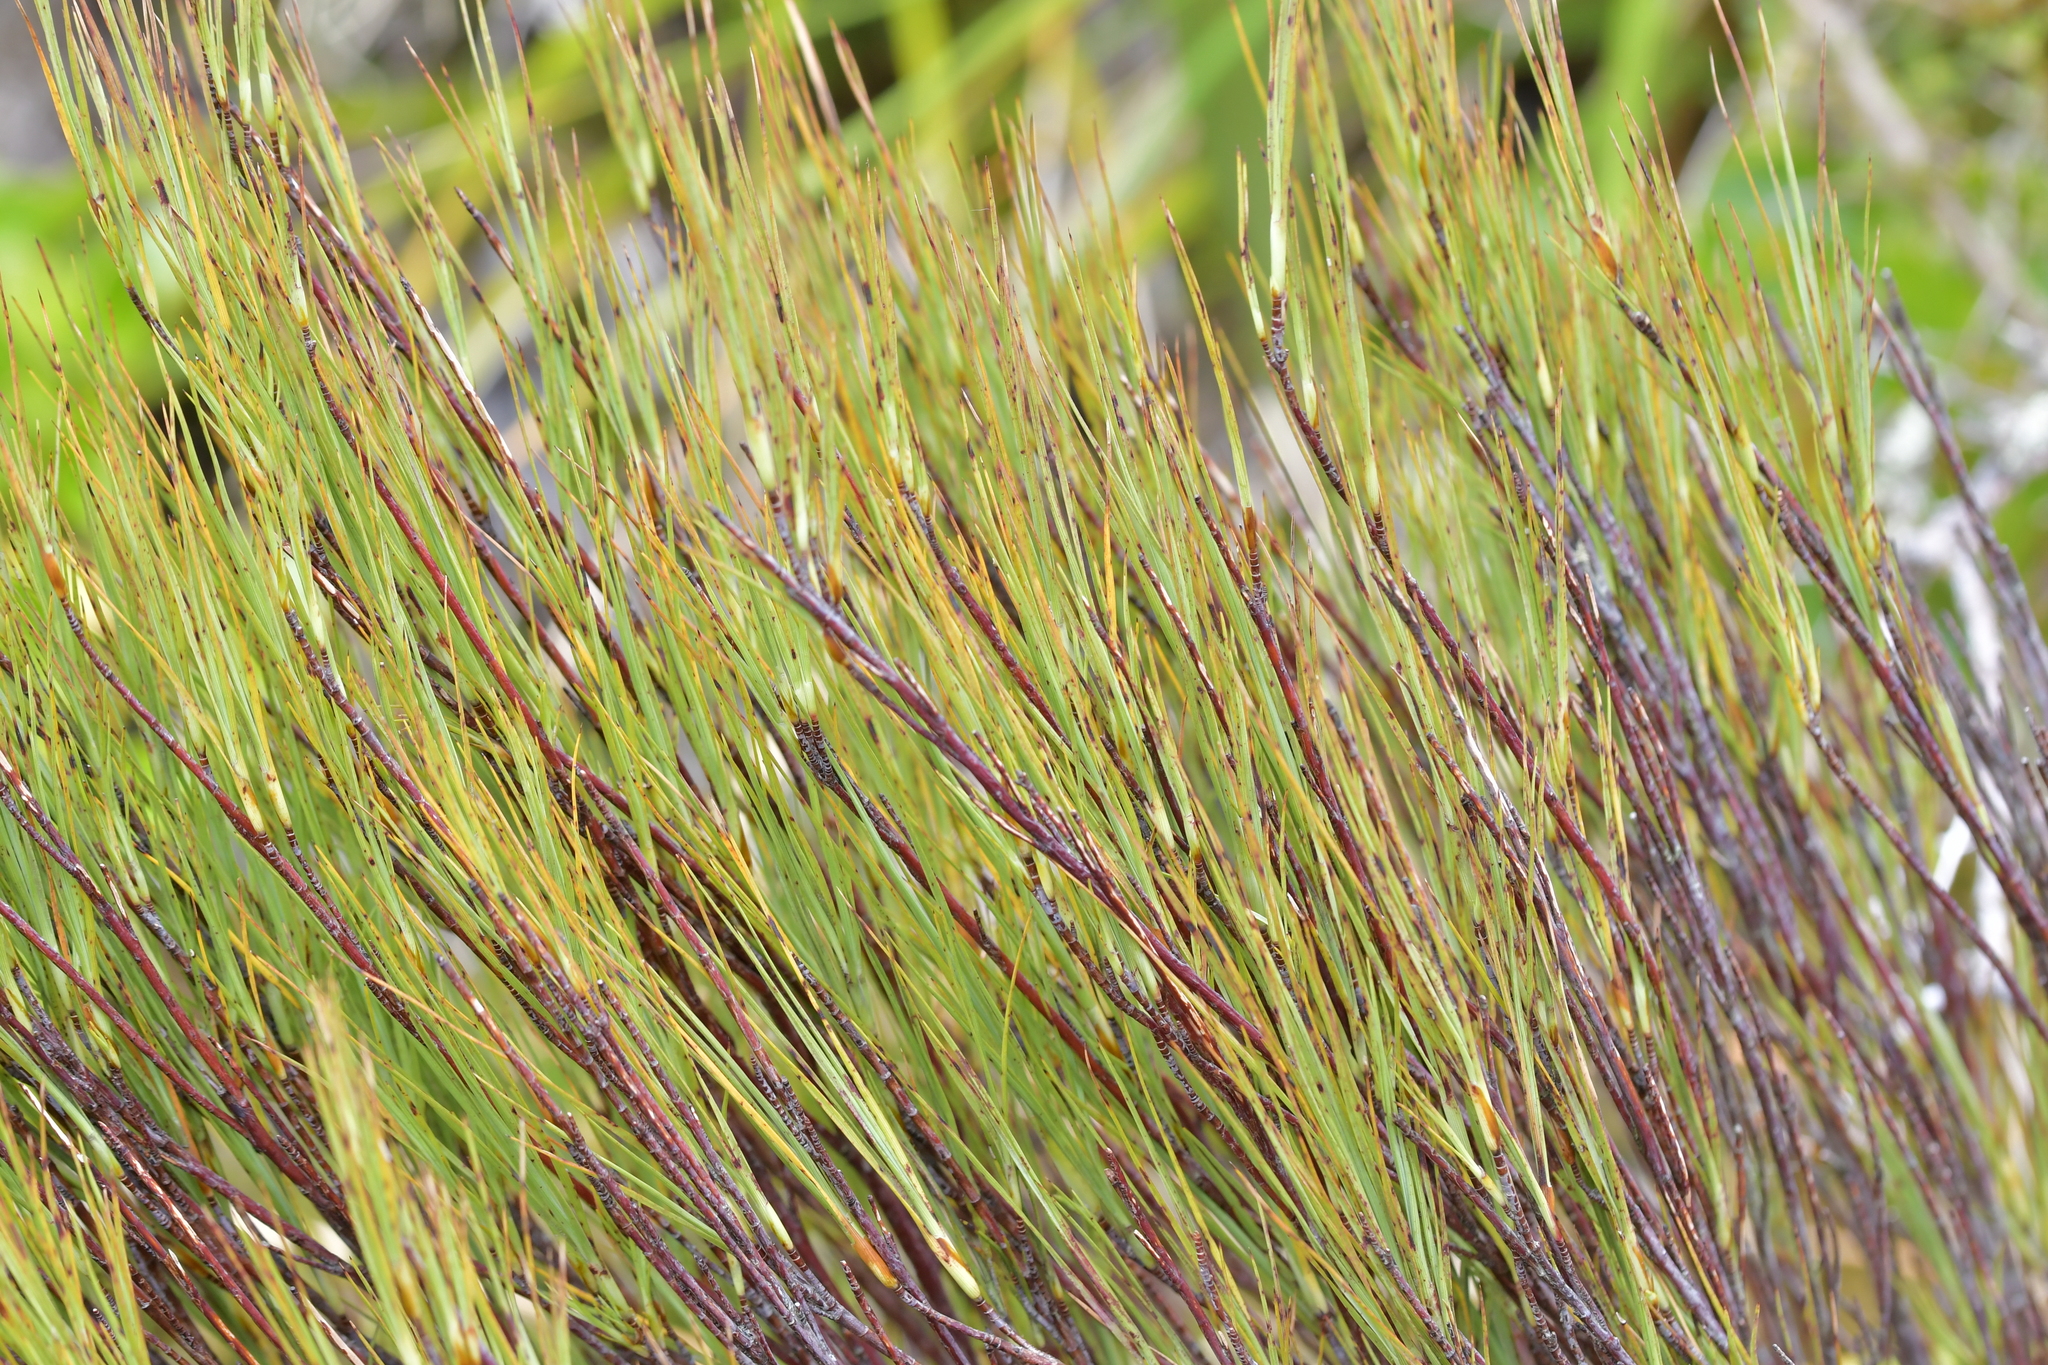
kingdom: Plantae
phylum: Tracheophyta
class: Magnoliopsida
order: Ericales
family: Ericaceae
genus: Dracophyllum
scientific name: Dracophyllum filifolium
